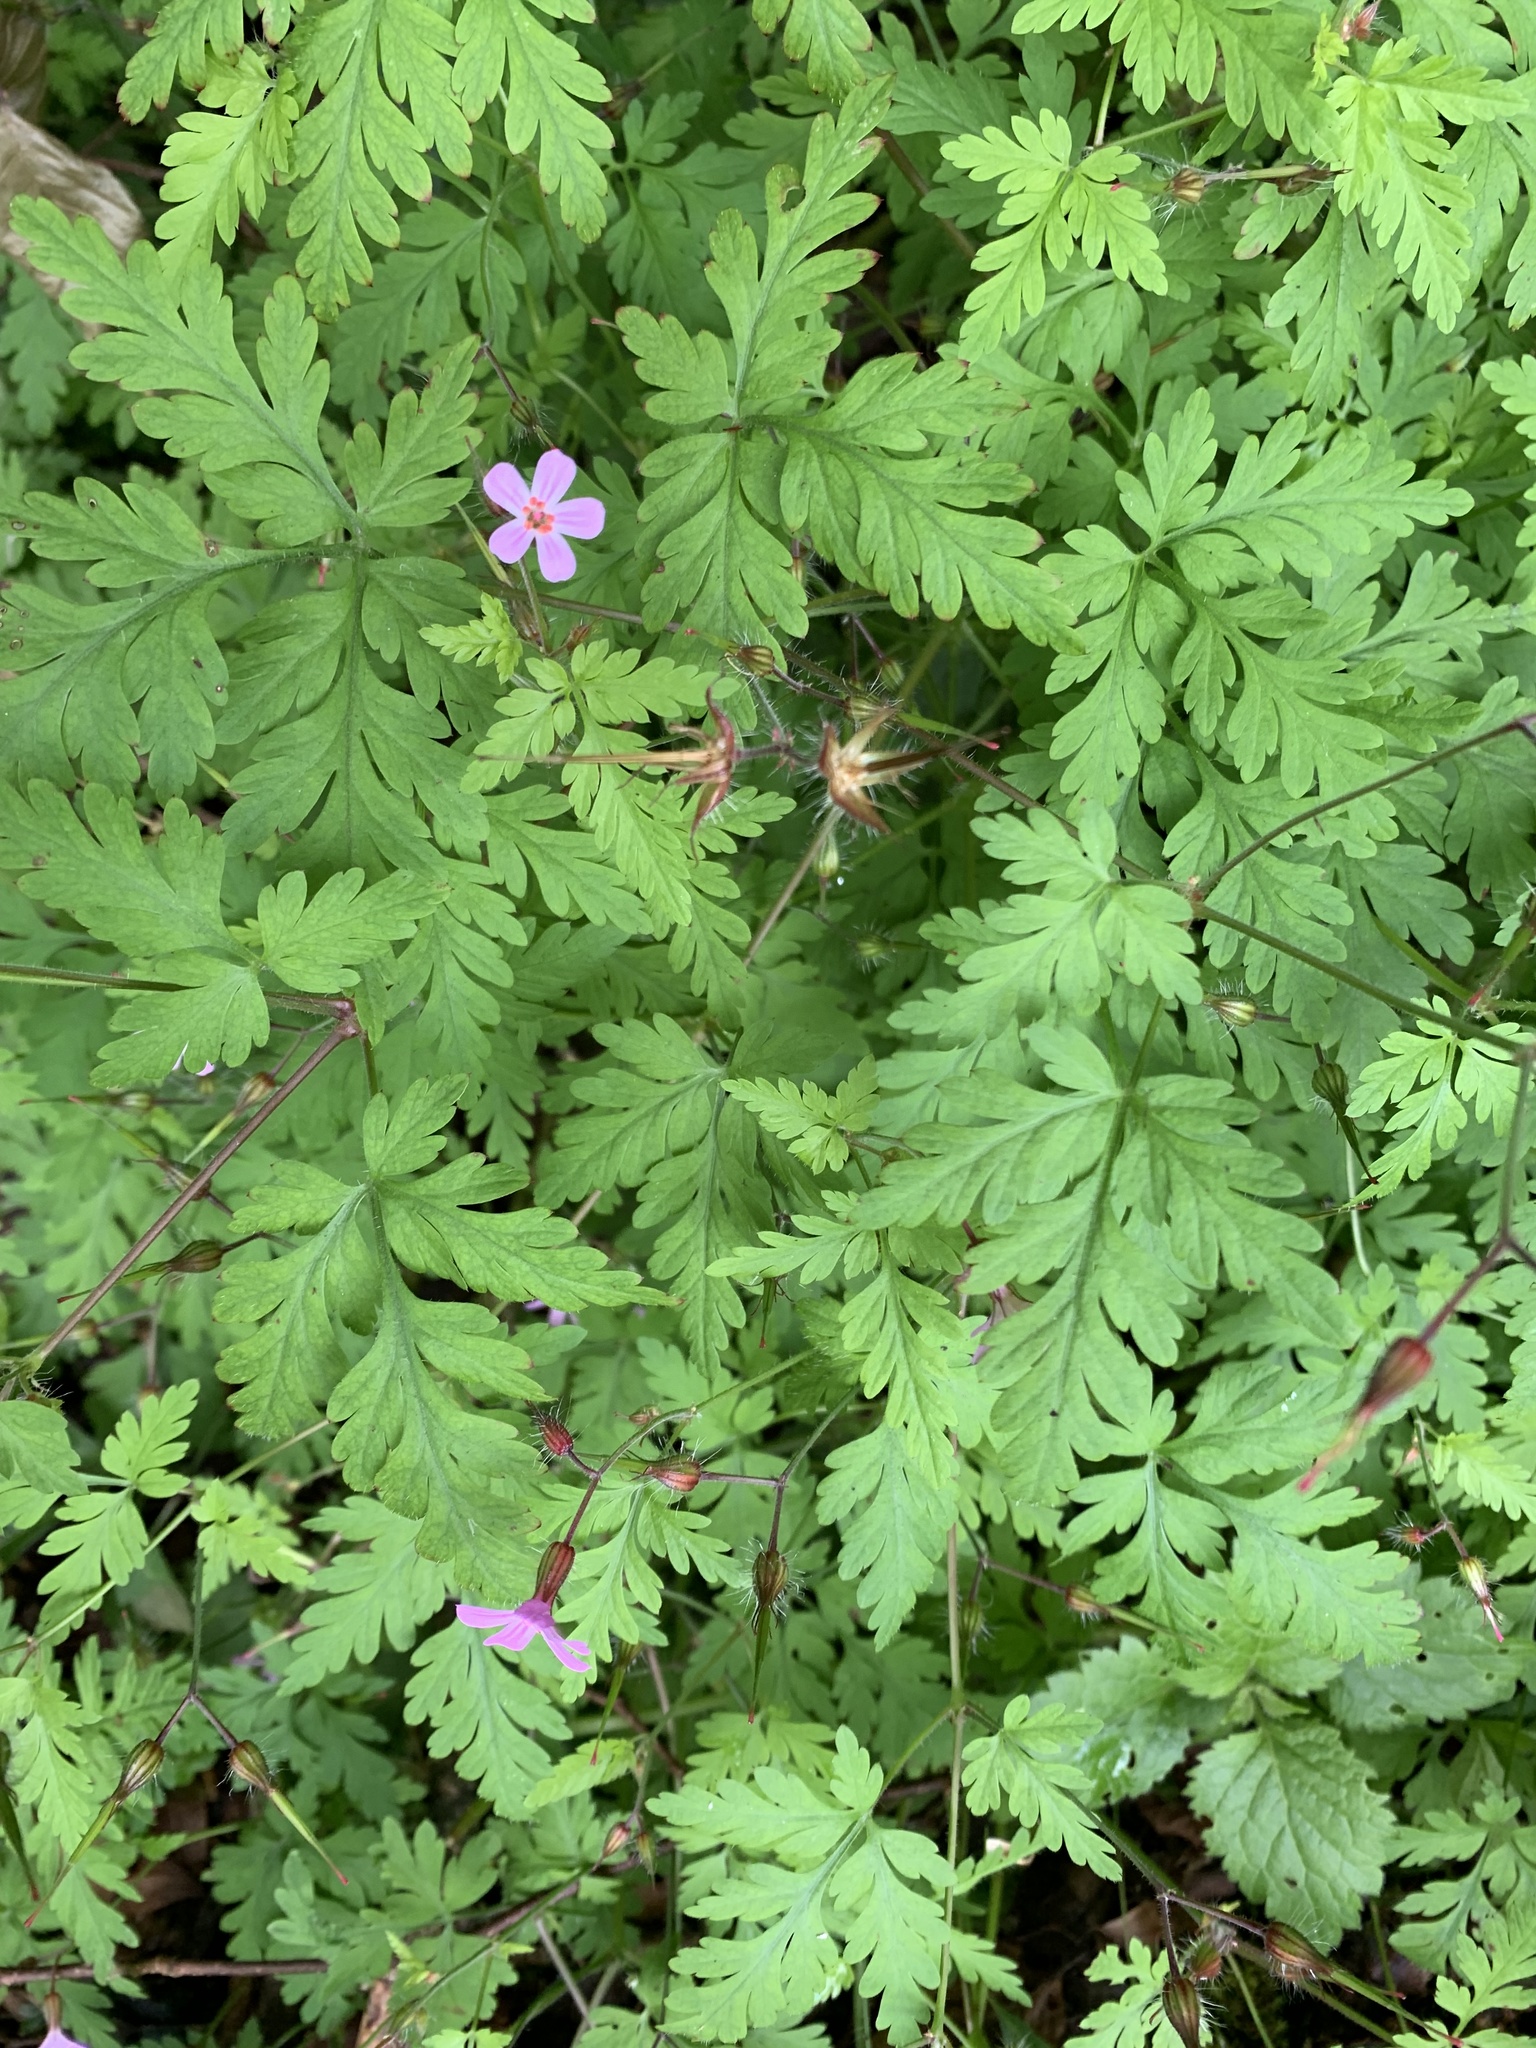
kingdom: Plantae
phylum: Tracheophyta
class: Magnoliopsida
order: Geraniales
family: Geraniaceae
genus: Geranium
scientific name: Geranium robertianum
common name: Herb-robert
